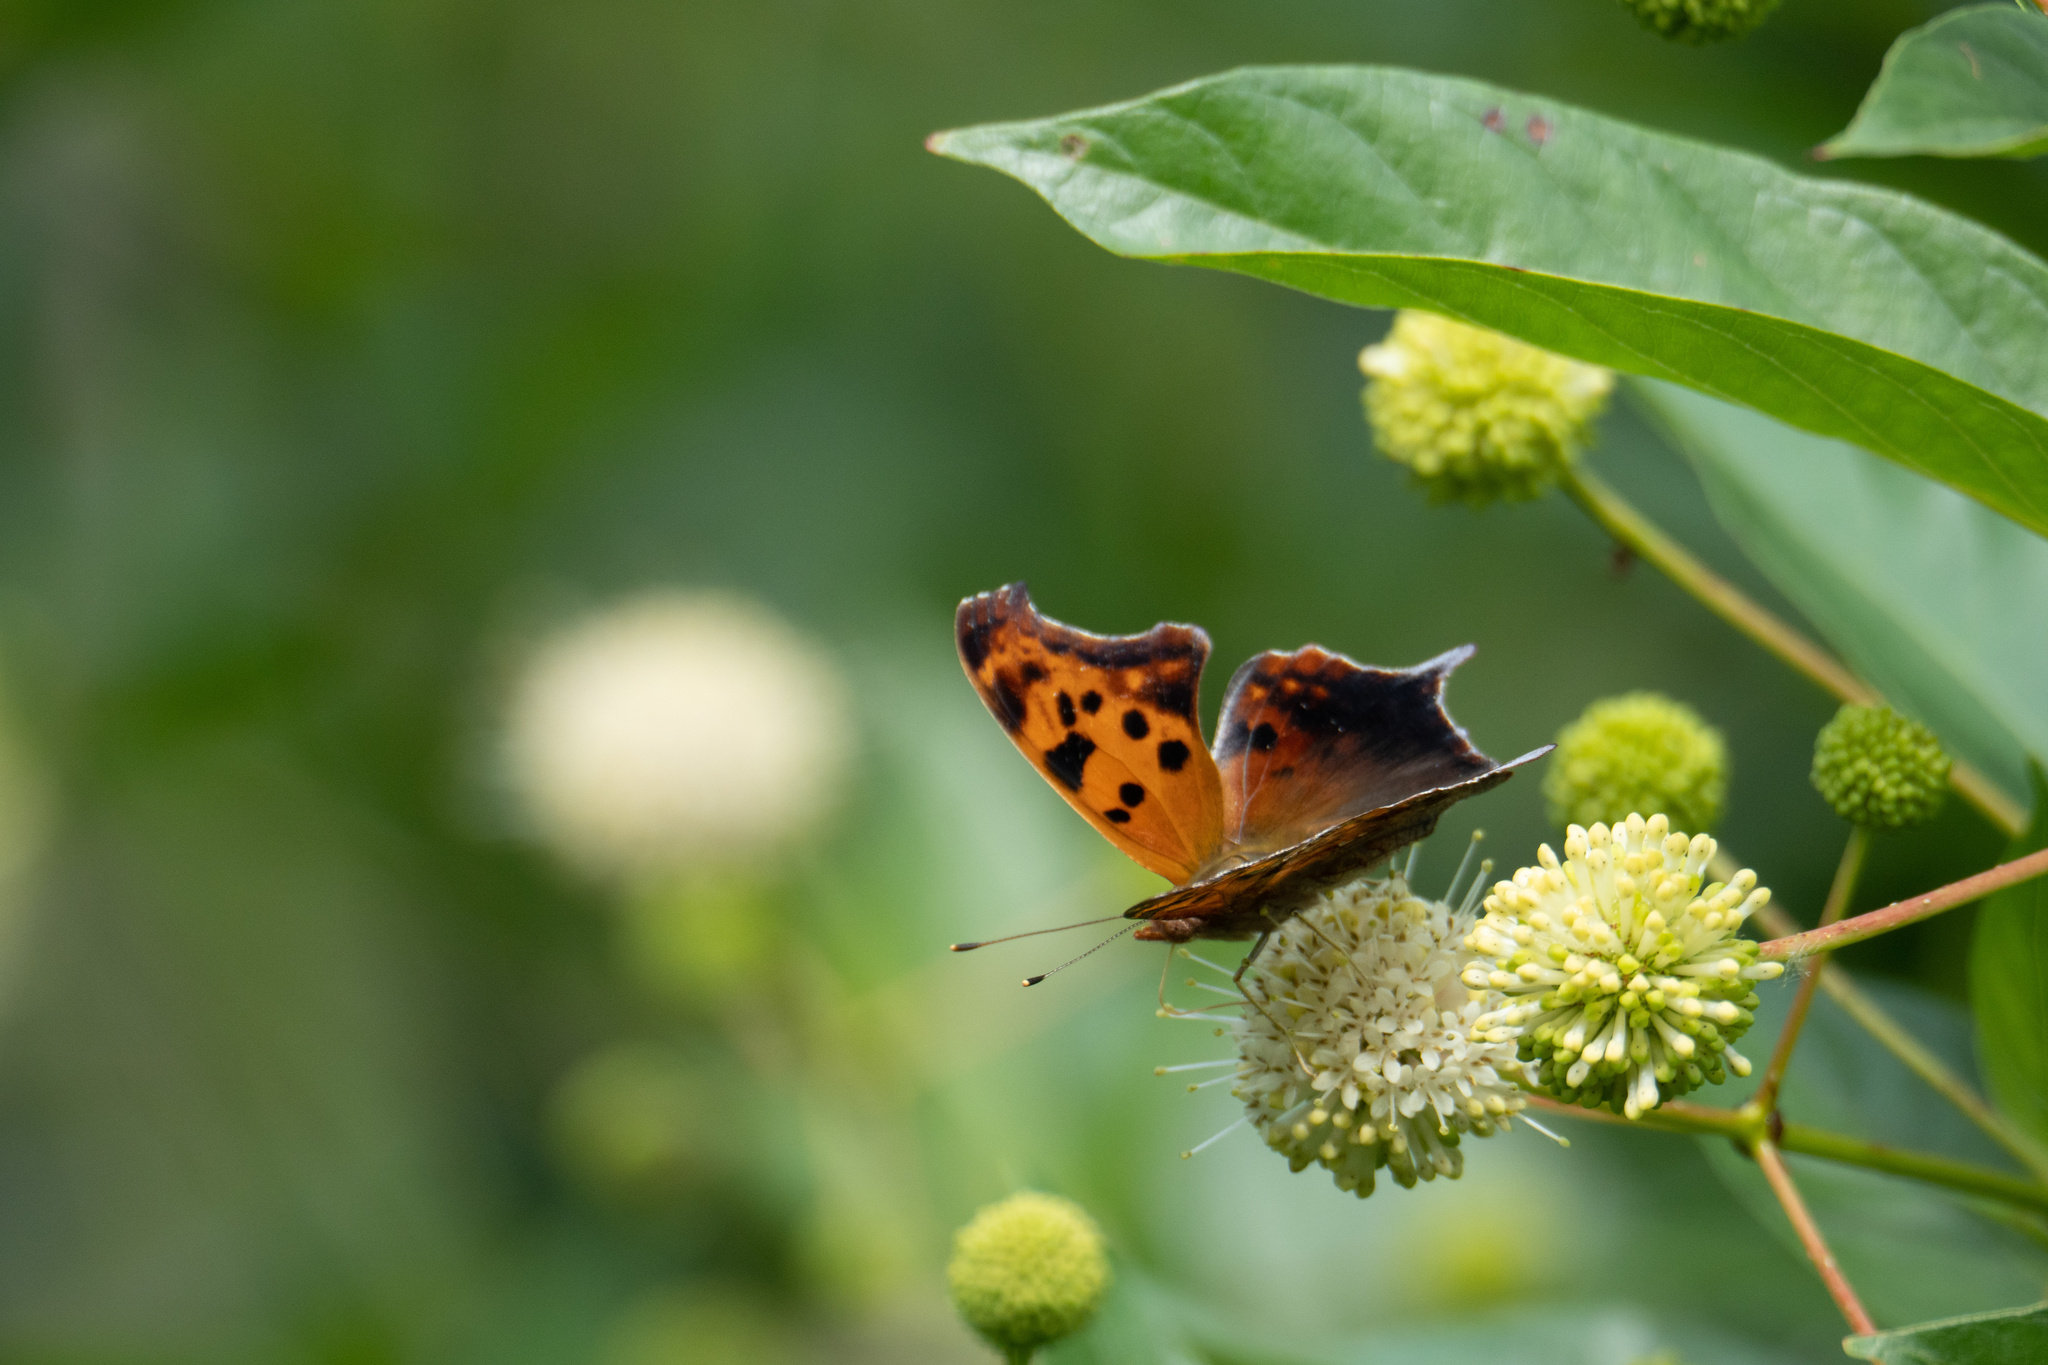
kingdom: Animalia
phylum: Arthropoda
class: Insecta
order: Lepidoptera
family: Nymphalidae
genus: Polygonia
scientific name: Polygonia interrogationis
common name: Question mark
